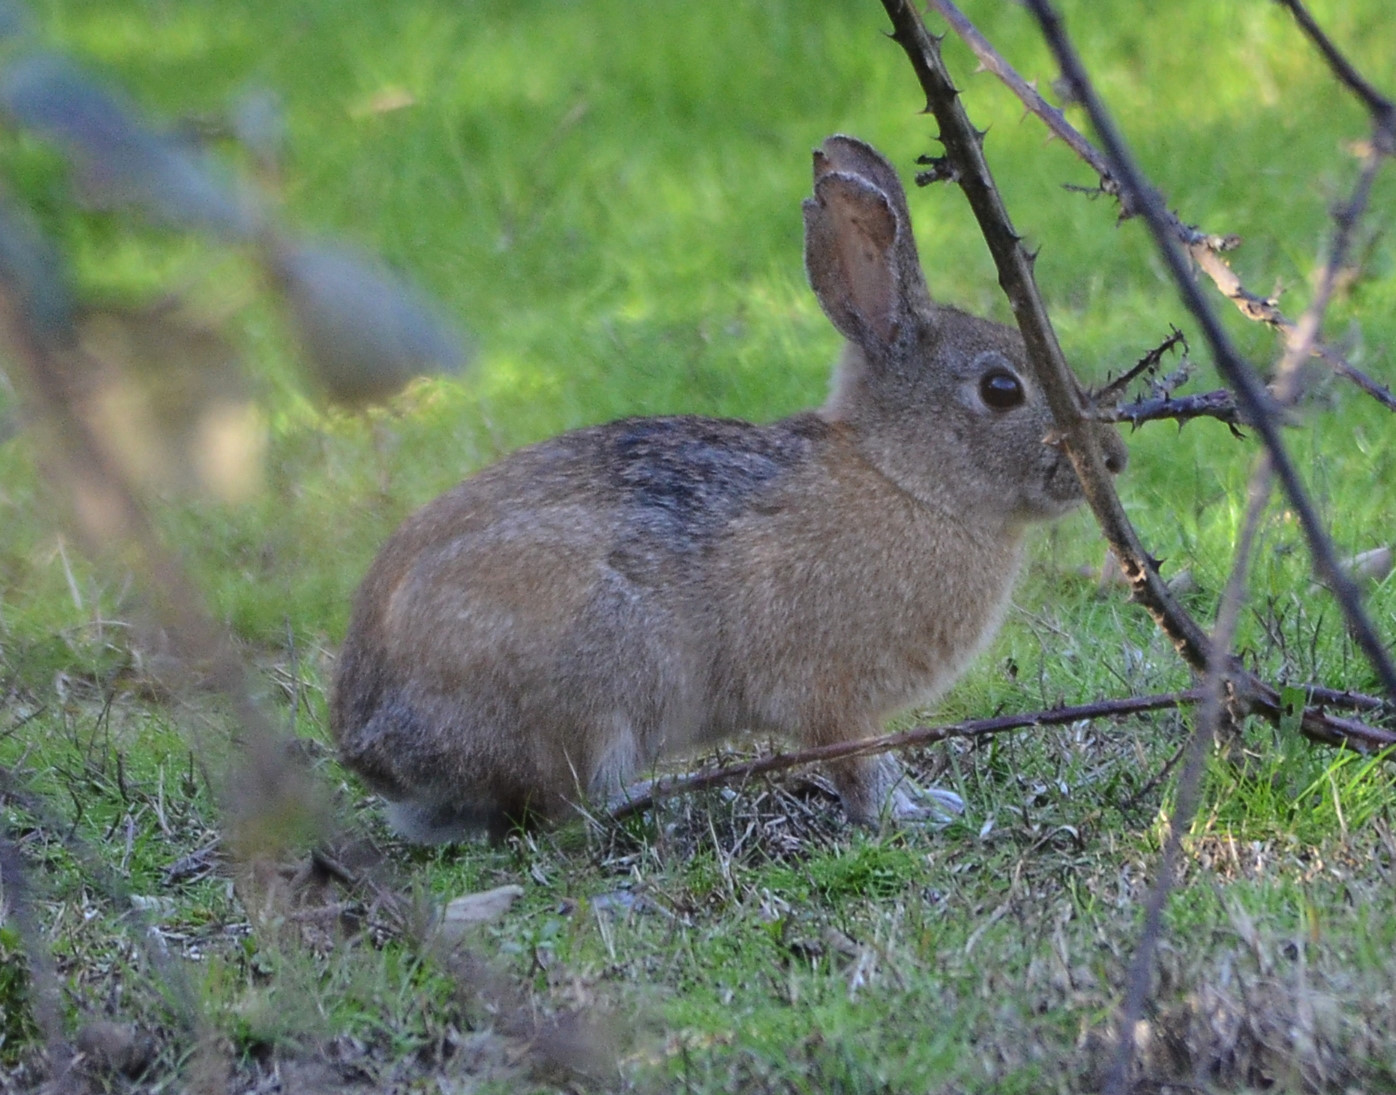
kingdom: Animalia
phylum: Chordata
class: Mammalia
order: Lagomorpha
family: Leporidae
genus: Sylvilagus
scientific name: Sylvilagus bachmani
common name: Brush rabbit
